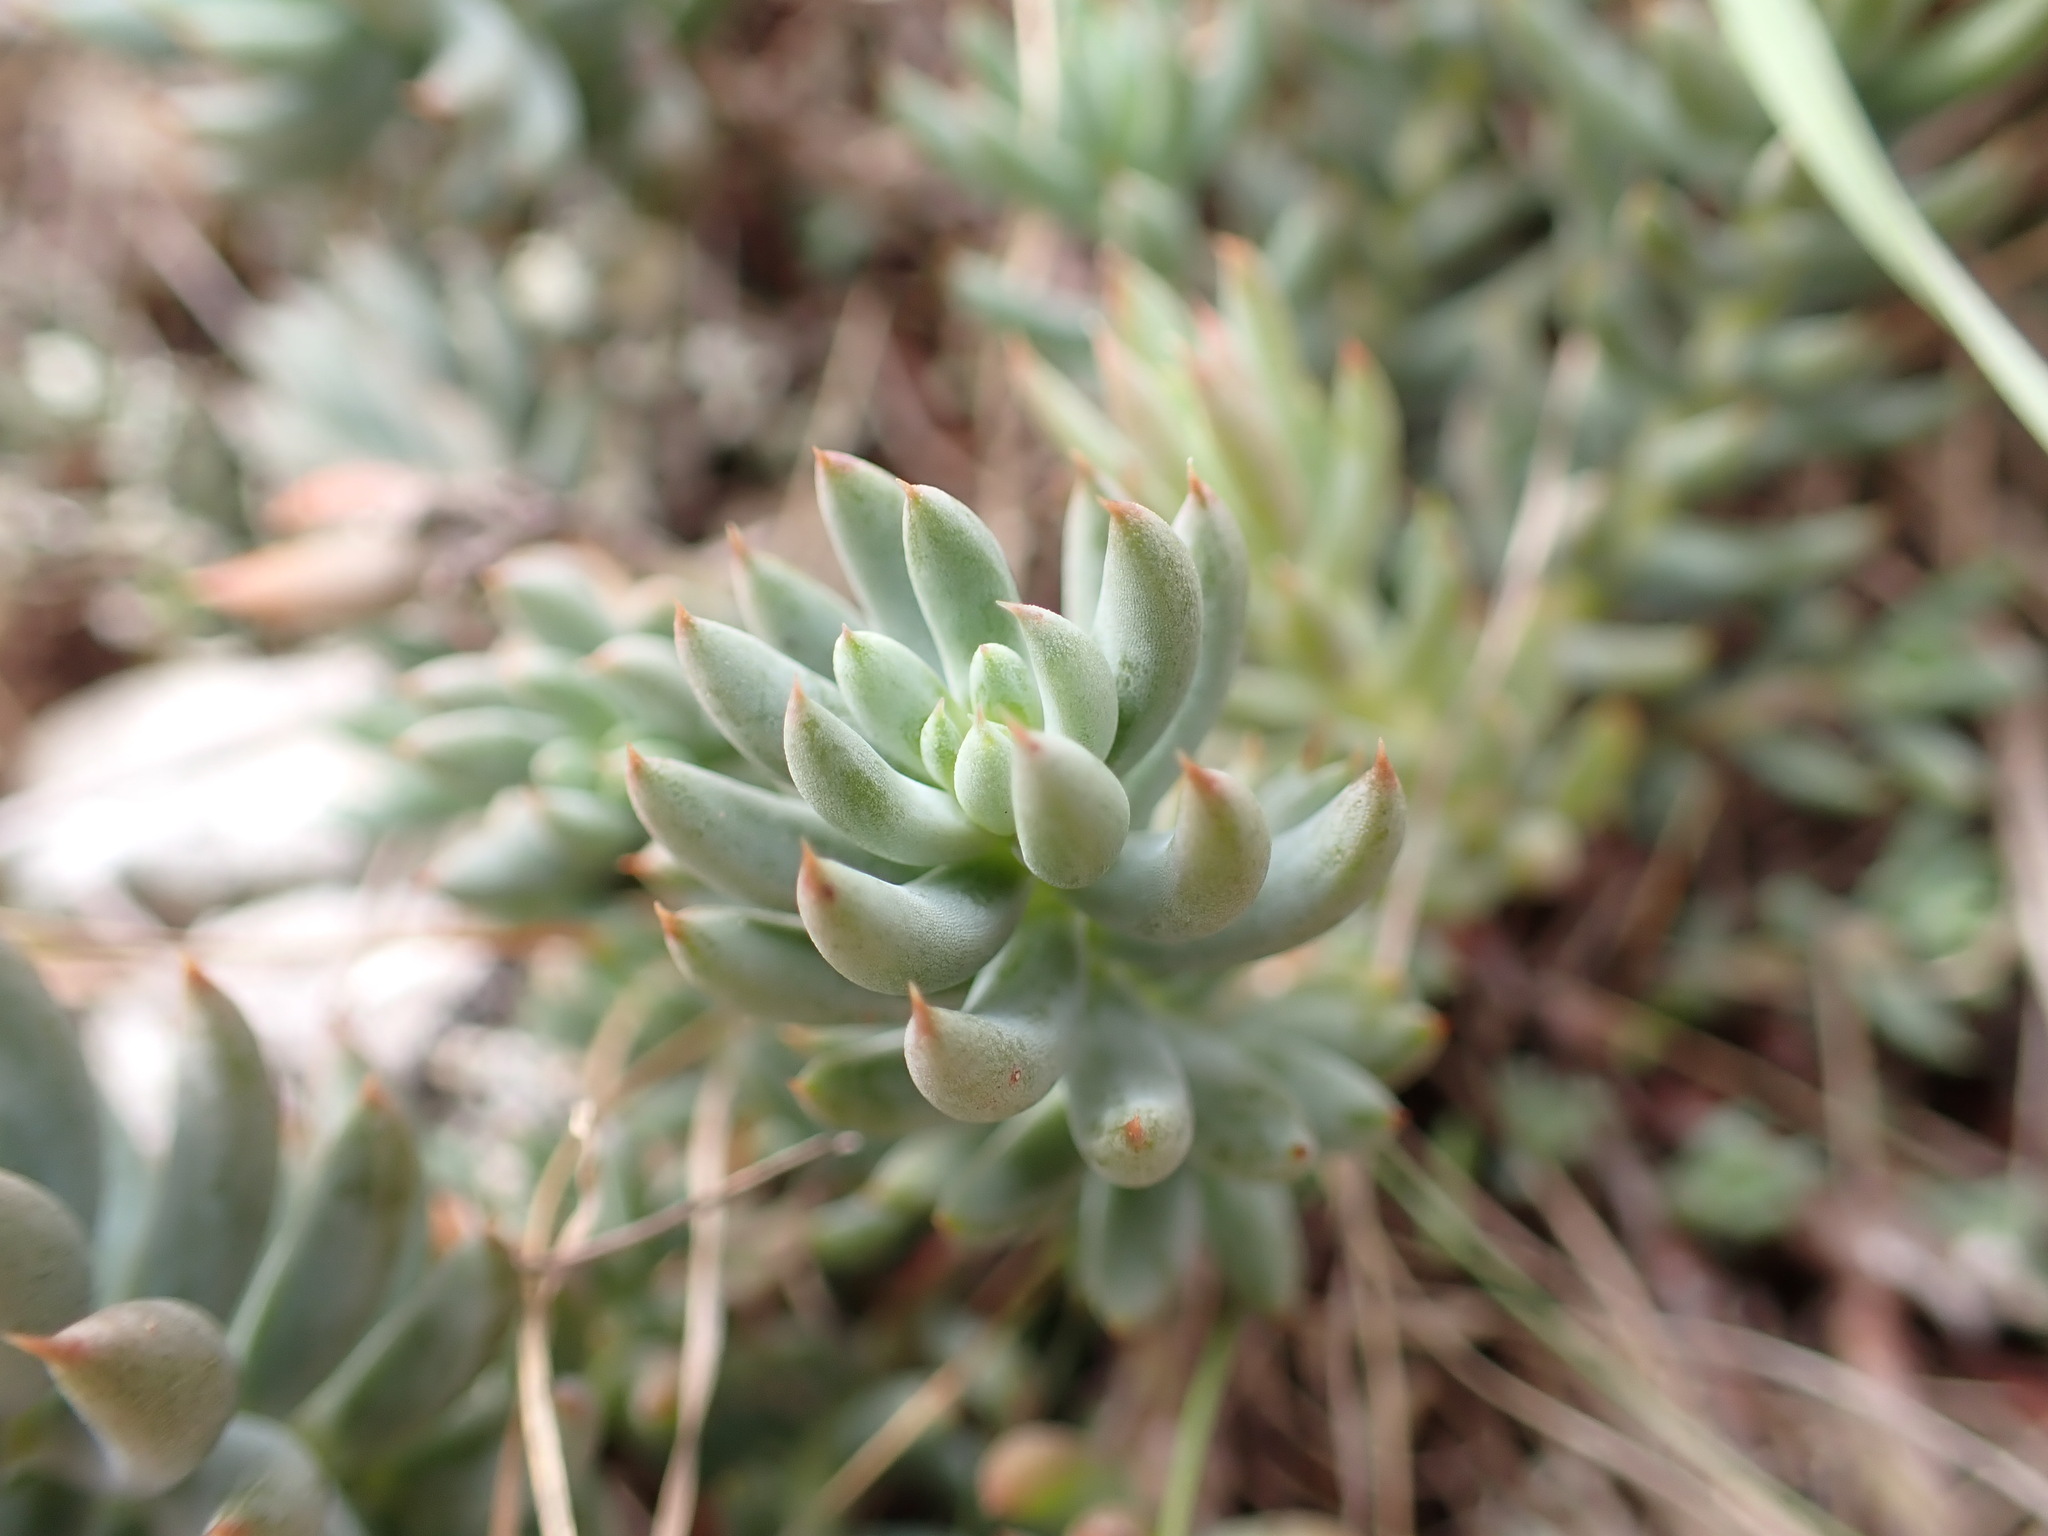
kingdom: Plantae
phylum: Tracheophyta
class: Magnoliopsida
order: Saxifragales
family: Crassulaceae
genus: Petrosedum
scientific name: Petrosedum sediforme
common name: Pale stonecrop
